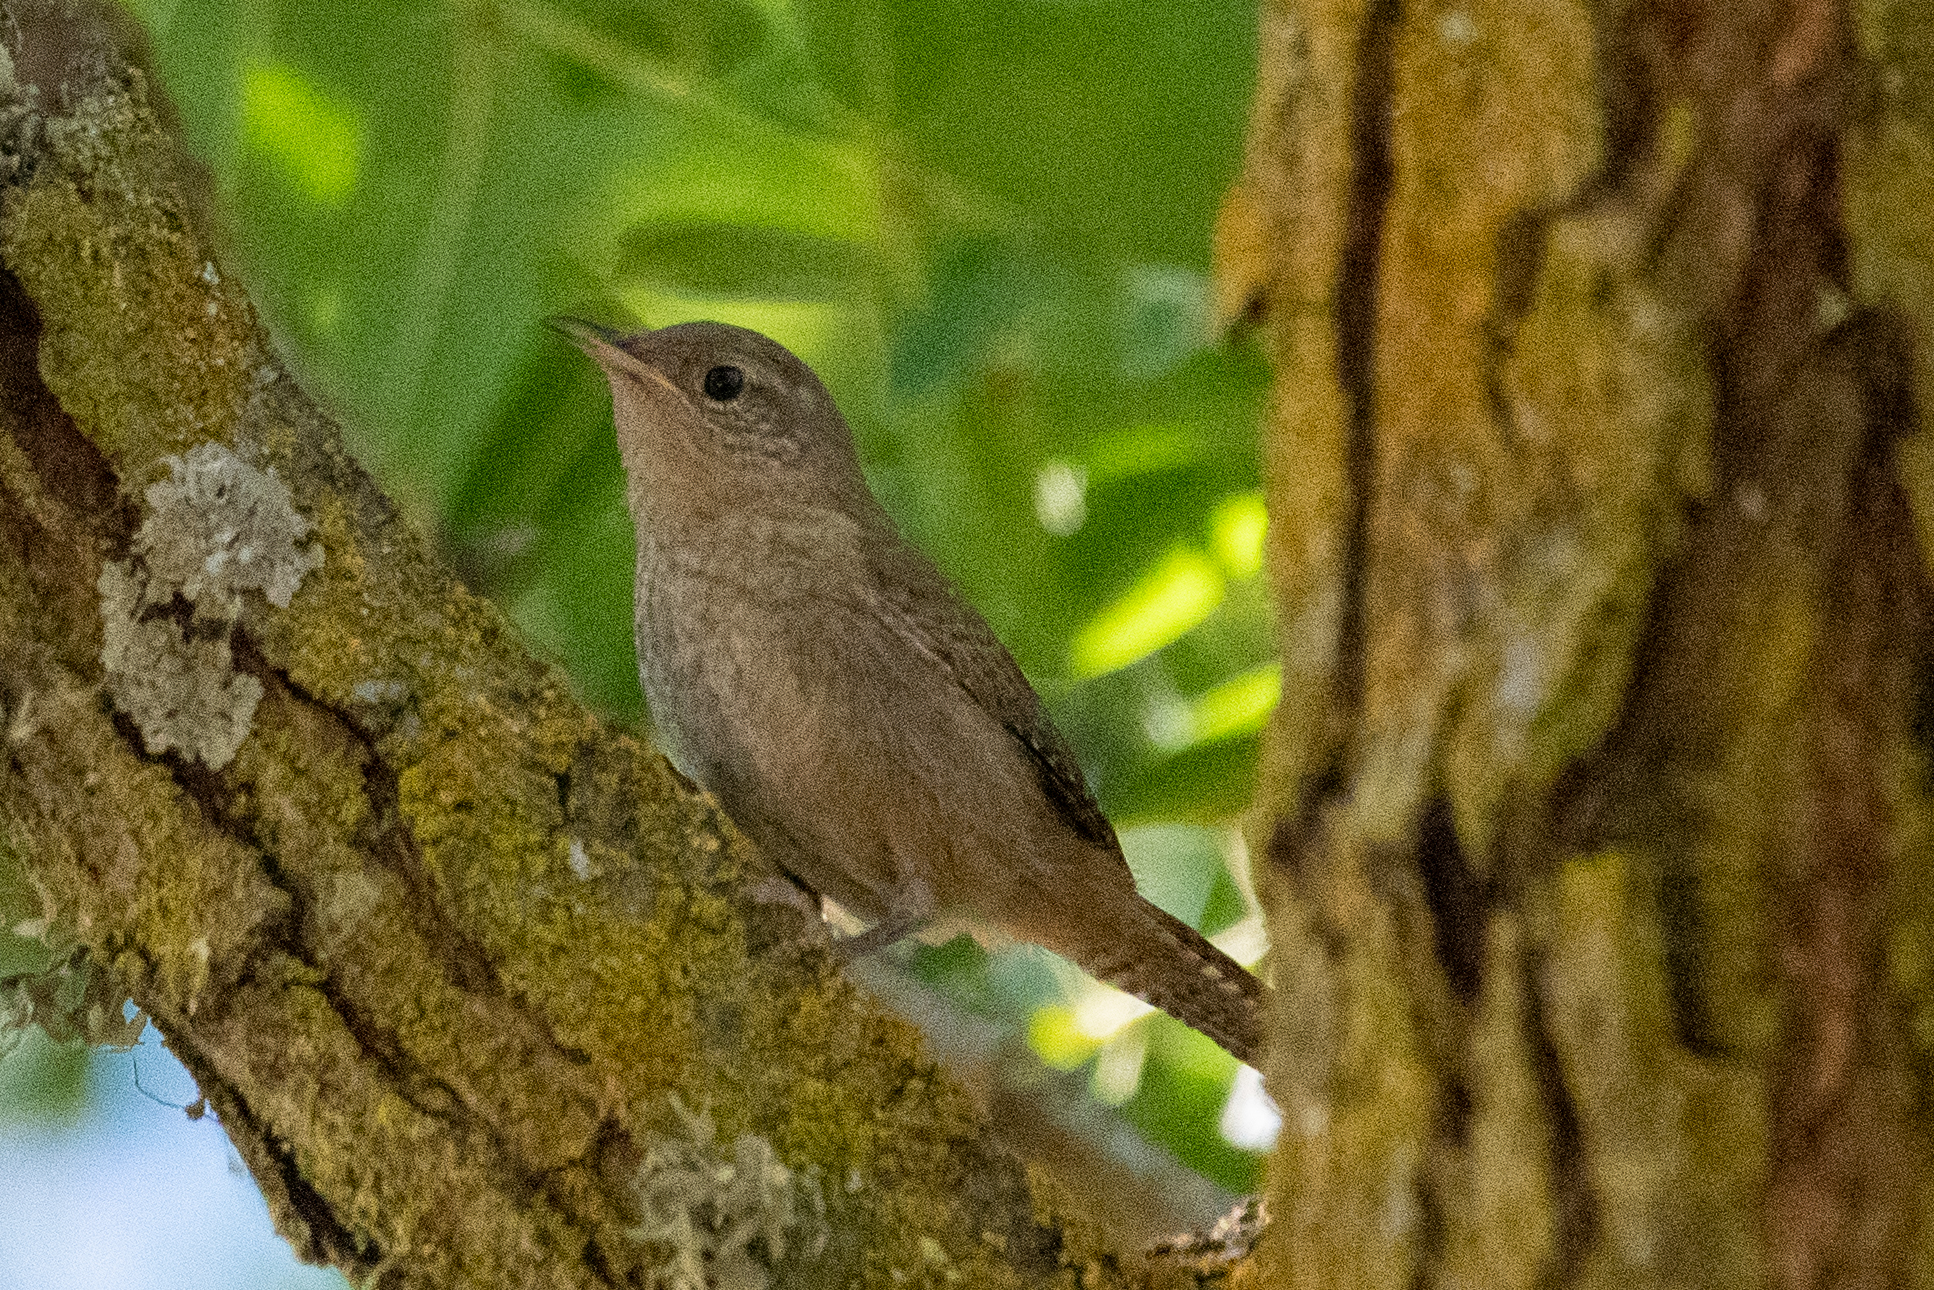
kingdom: Animalia
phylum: Chordata
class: Aves
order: Passeriformes
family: Troglodytidae
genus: Troglodytes
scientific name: Troglodytes aedon
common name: House wren
